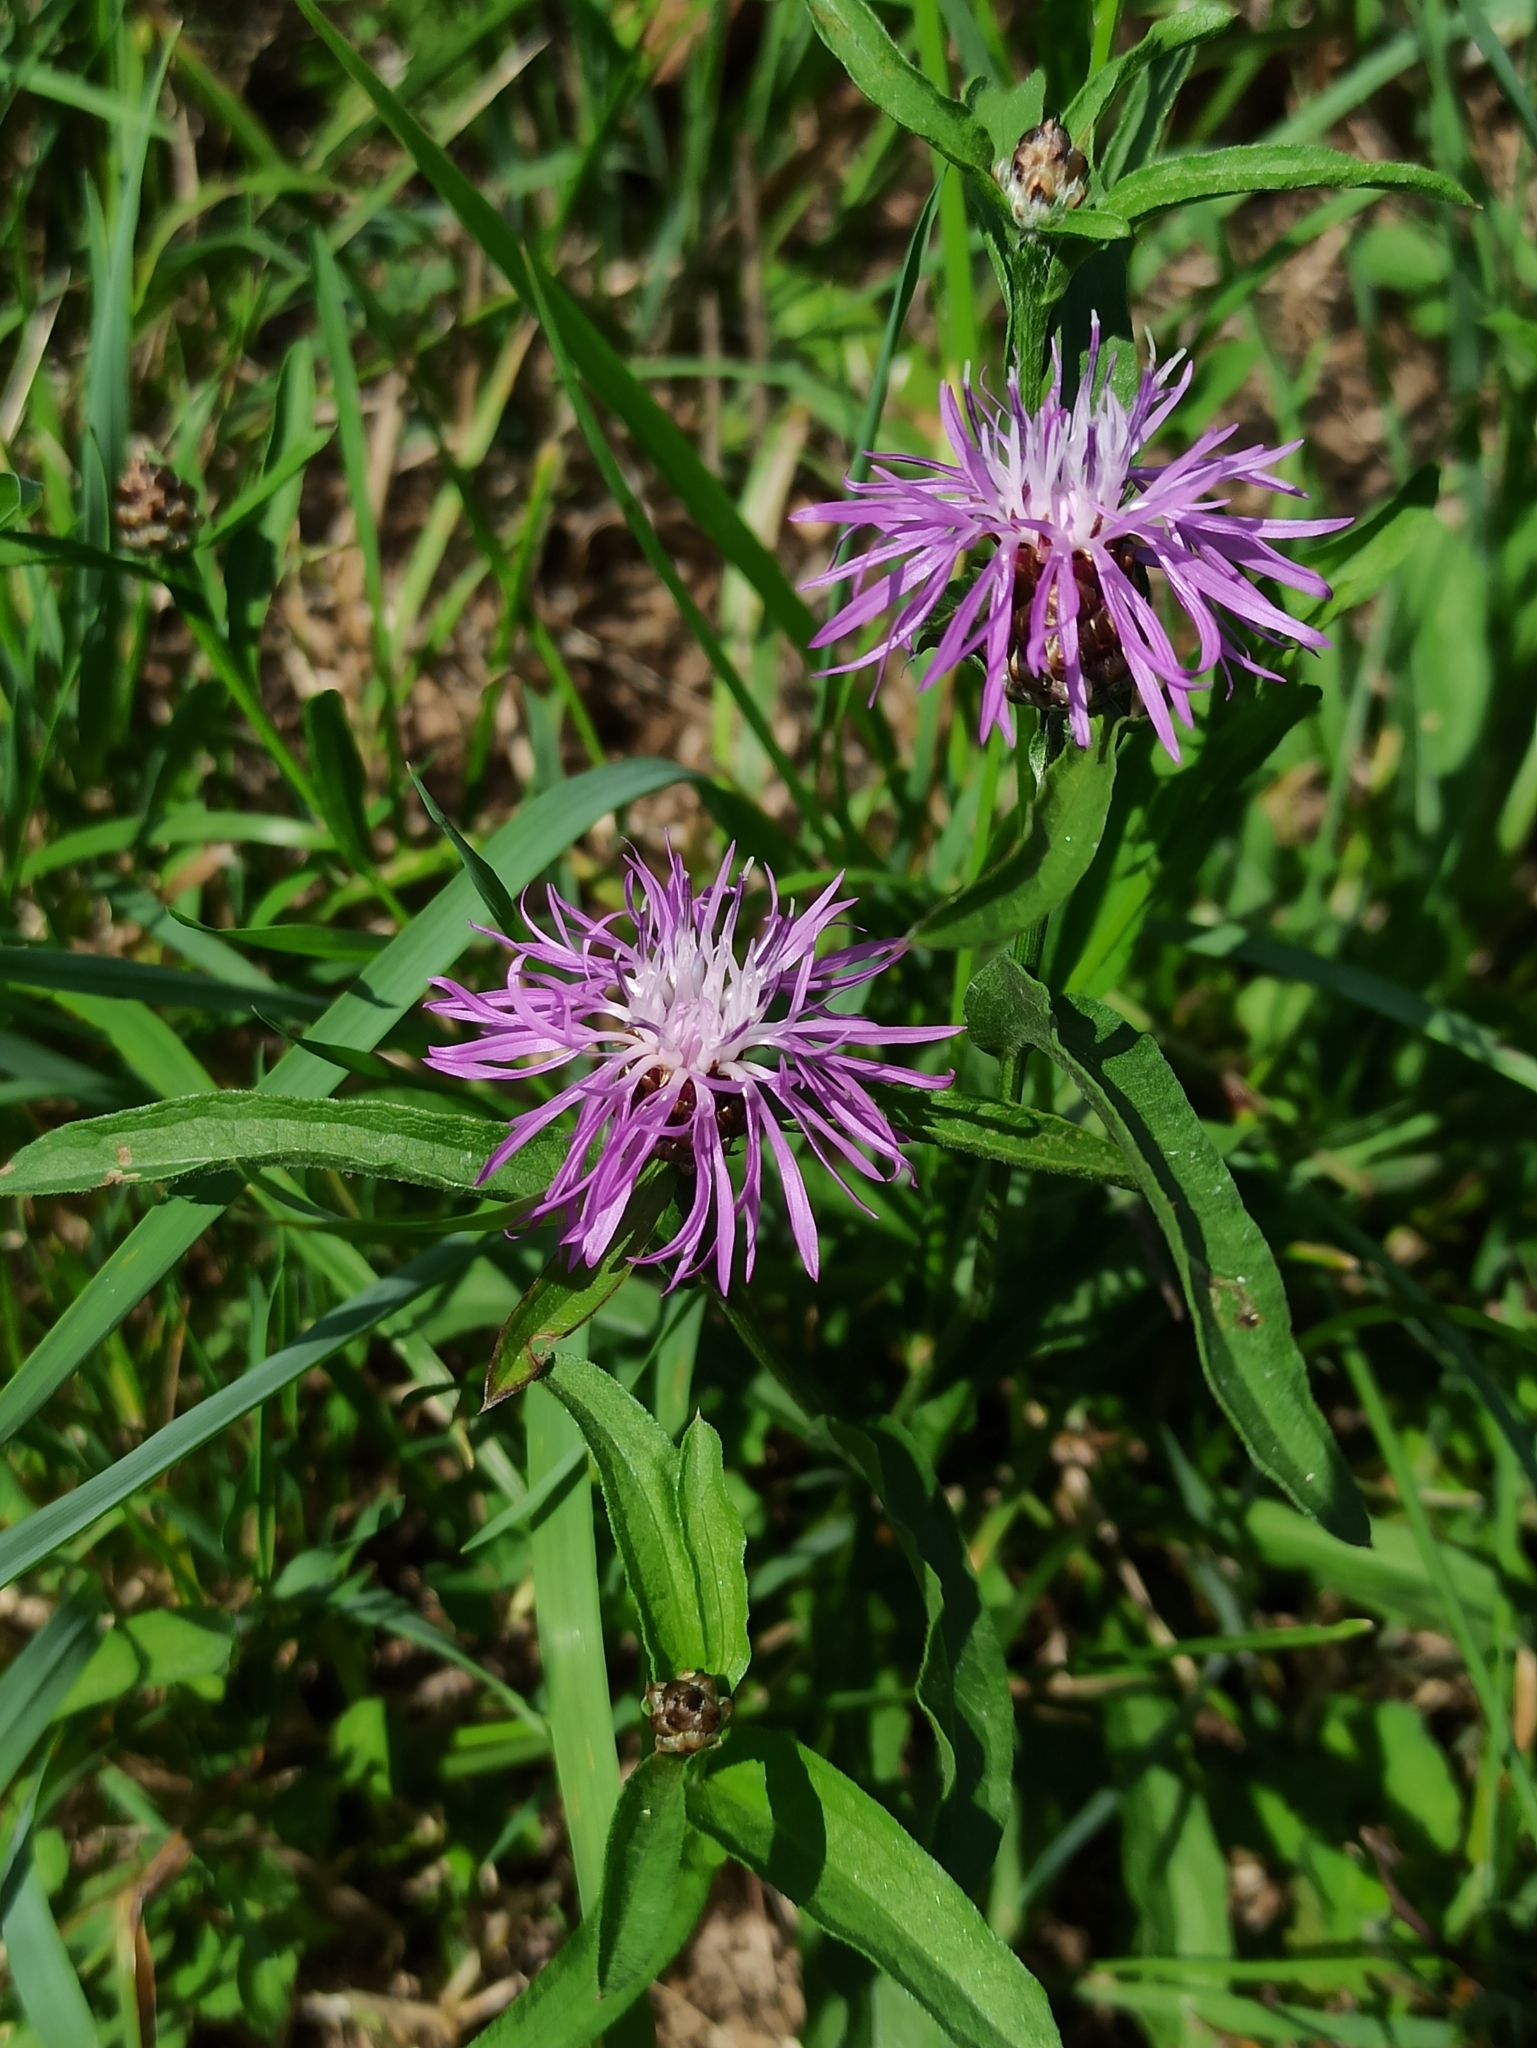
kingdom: Plantae
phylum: Tracheophyta
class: Magnoliopsida
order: Asterales
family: Asteraceae
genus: Centaurea
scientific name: Centaurea jacea
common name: Brown knapweed
